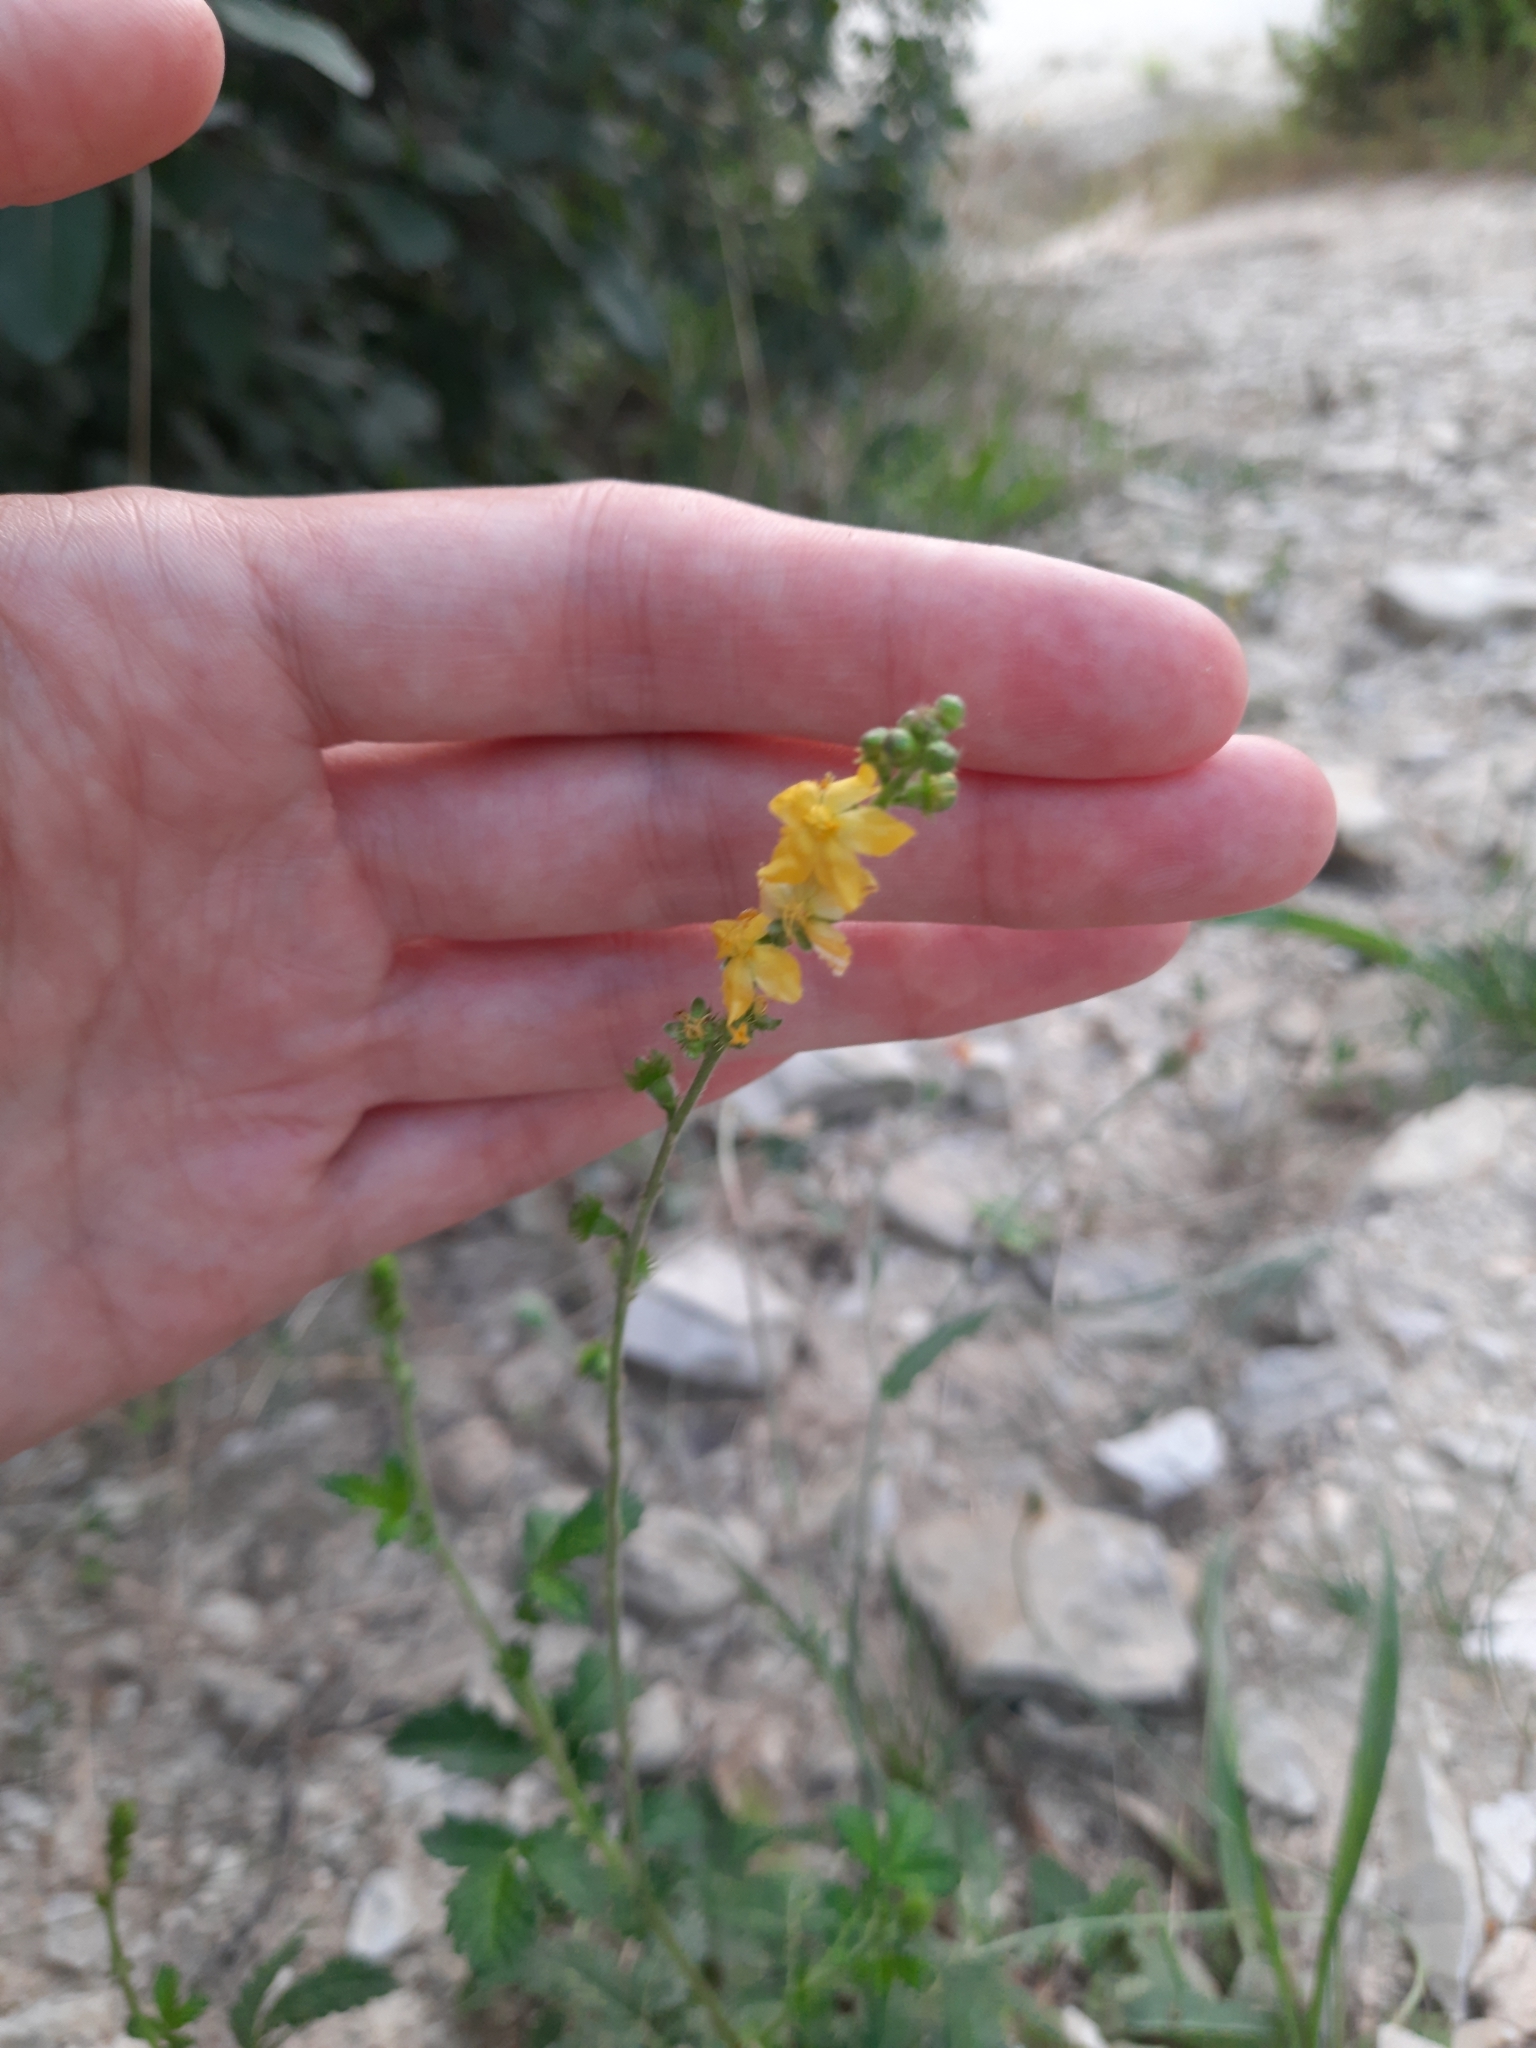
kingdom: Plantae
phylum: Tracheophyta
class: Magnoliopsida
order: Rosales
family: Rosaceae
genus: Agrimonia
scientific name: Agrimonia eupatoria
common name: Agrimony
